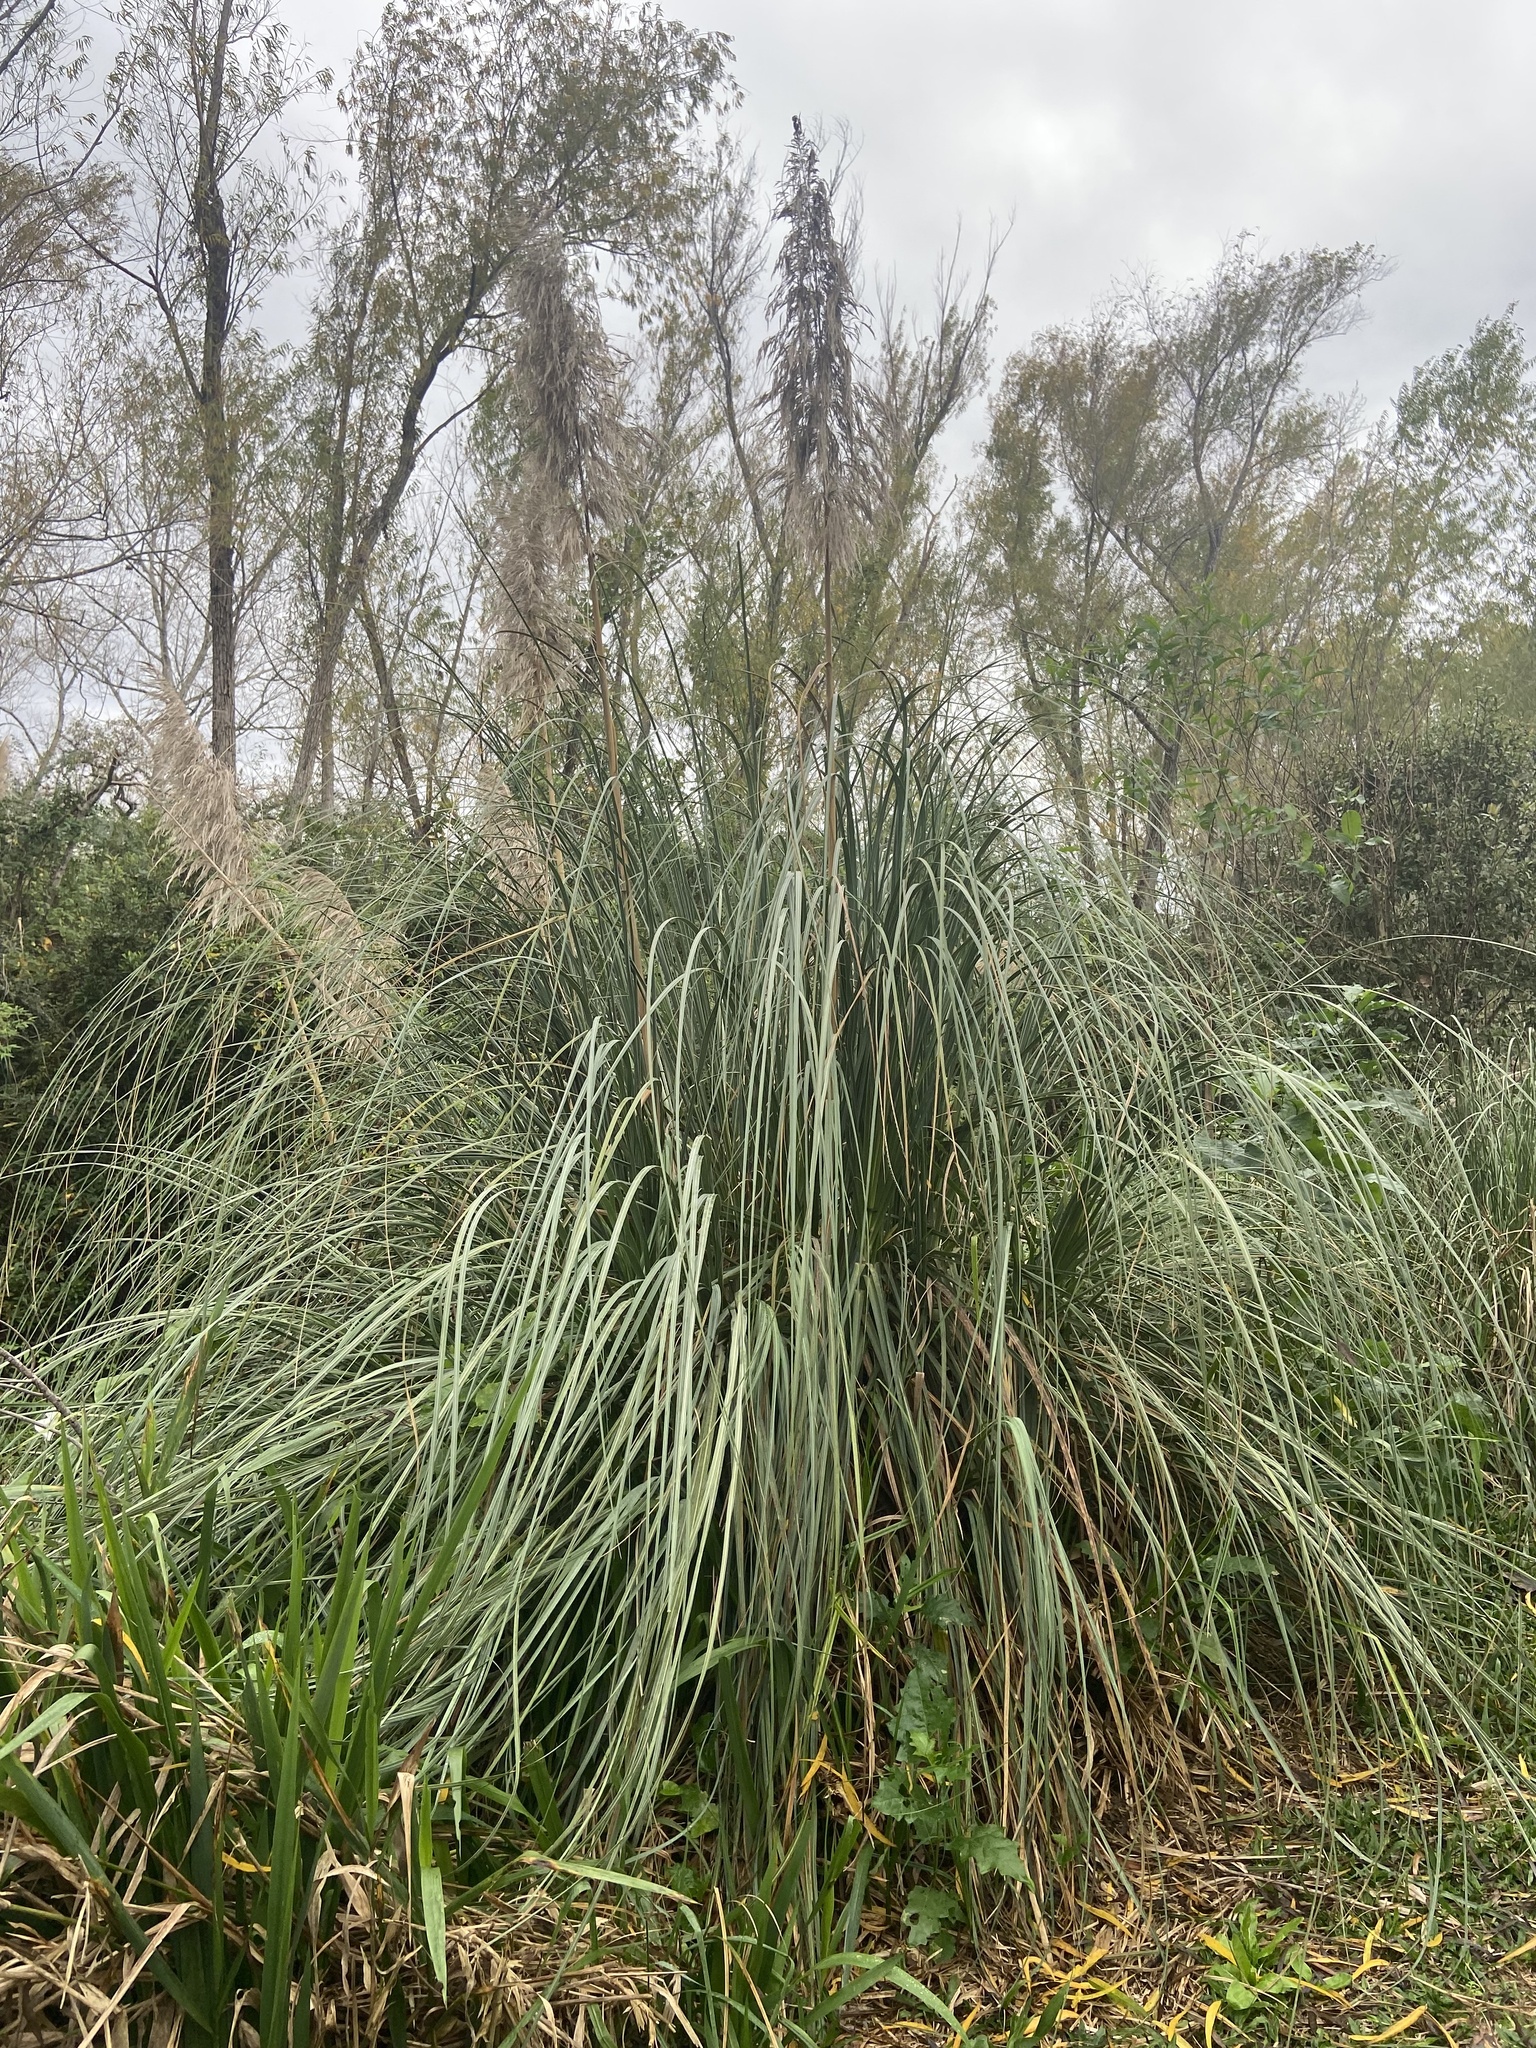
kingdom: Plantae
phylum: Tracheophyta
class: Liliopsida
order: Poales
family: Poaceae
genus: Cortaderia
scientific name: Cortaderia selloana
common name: Uruguayan pampas grass
